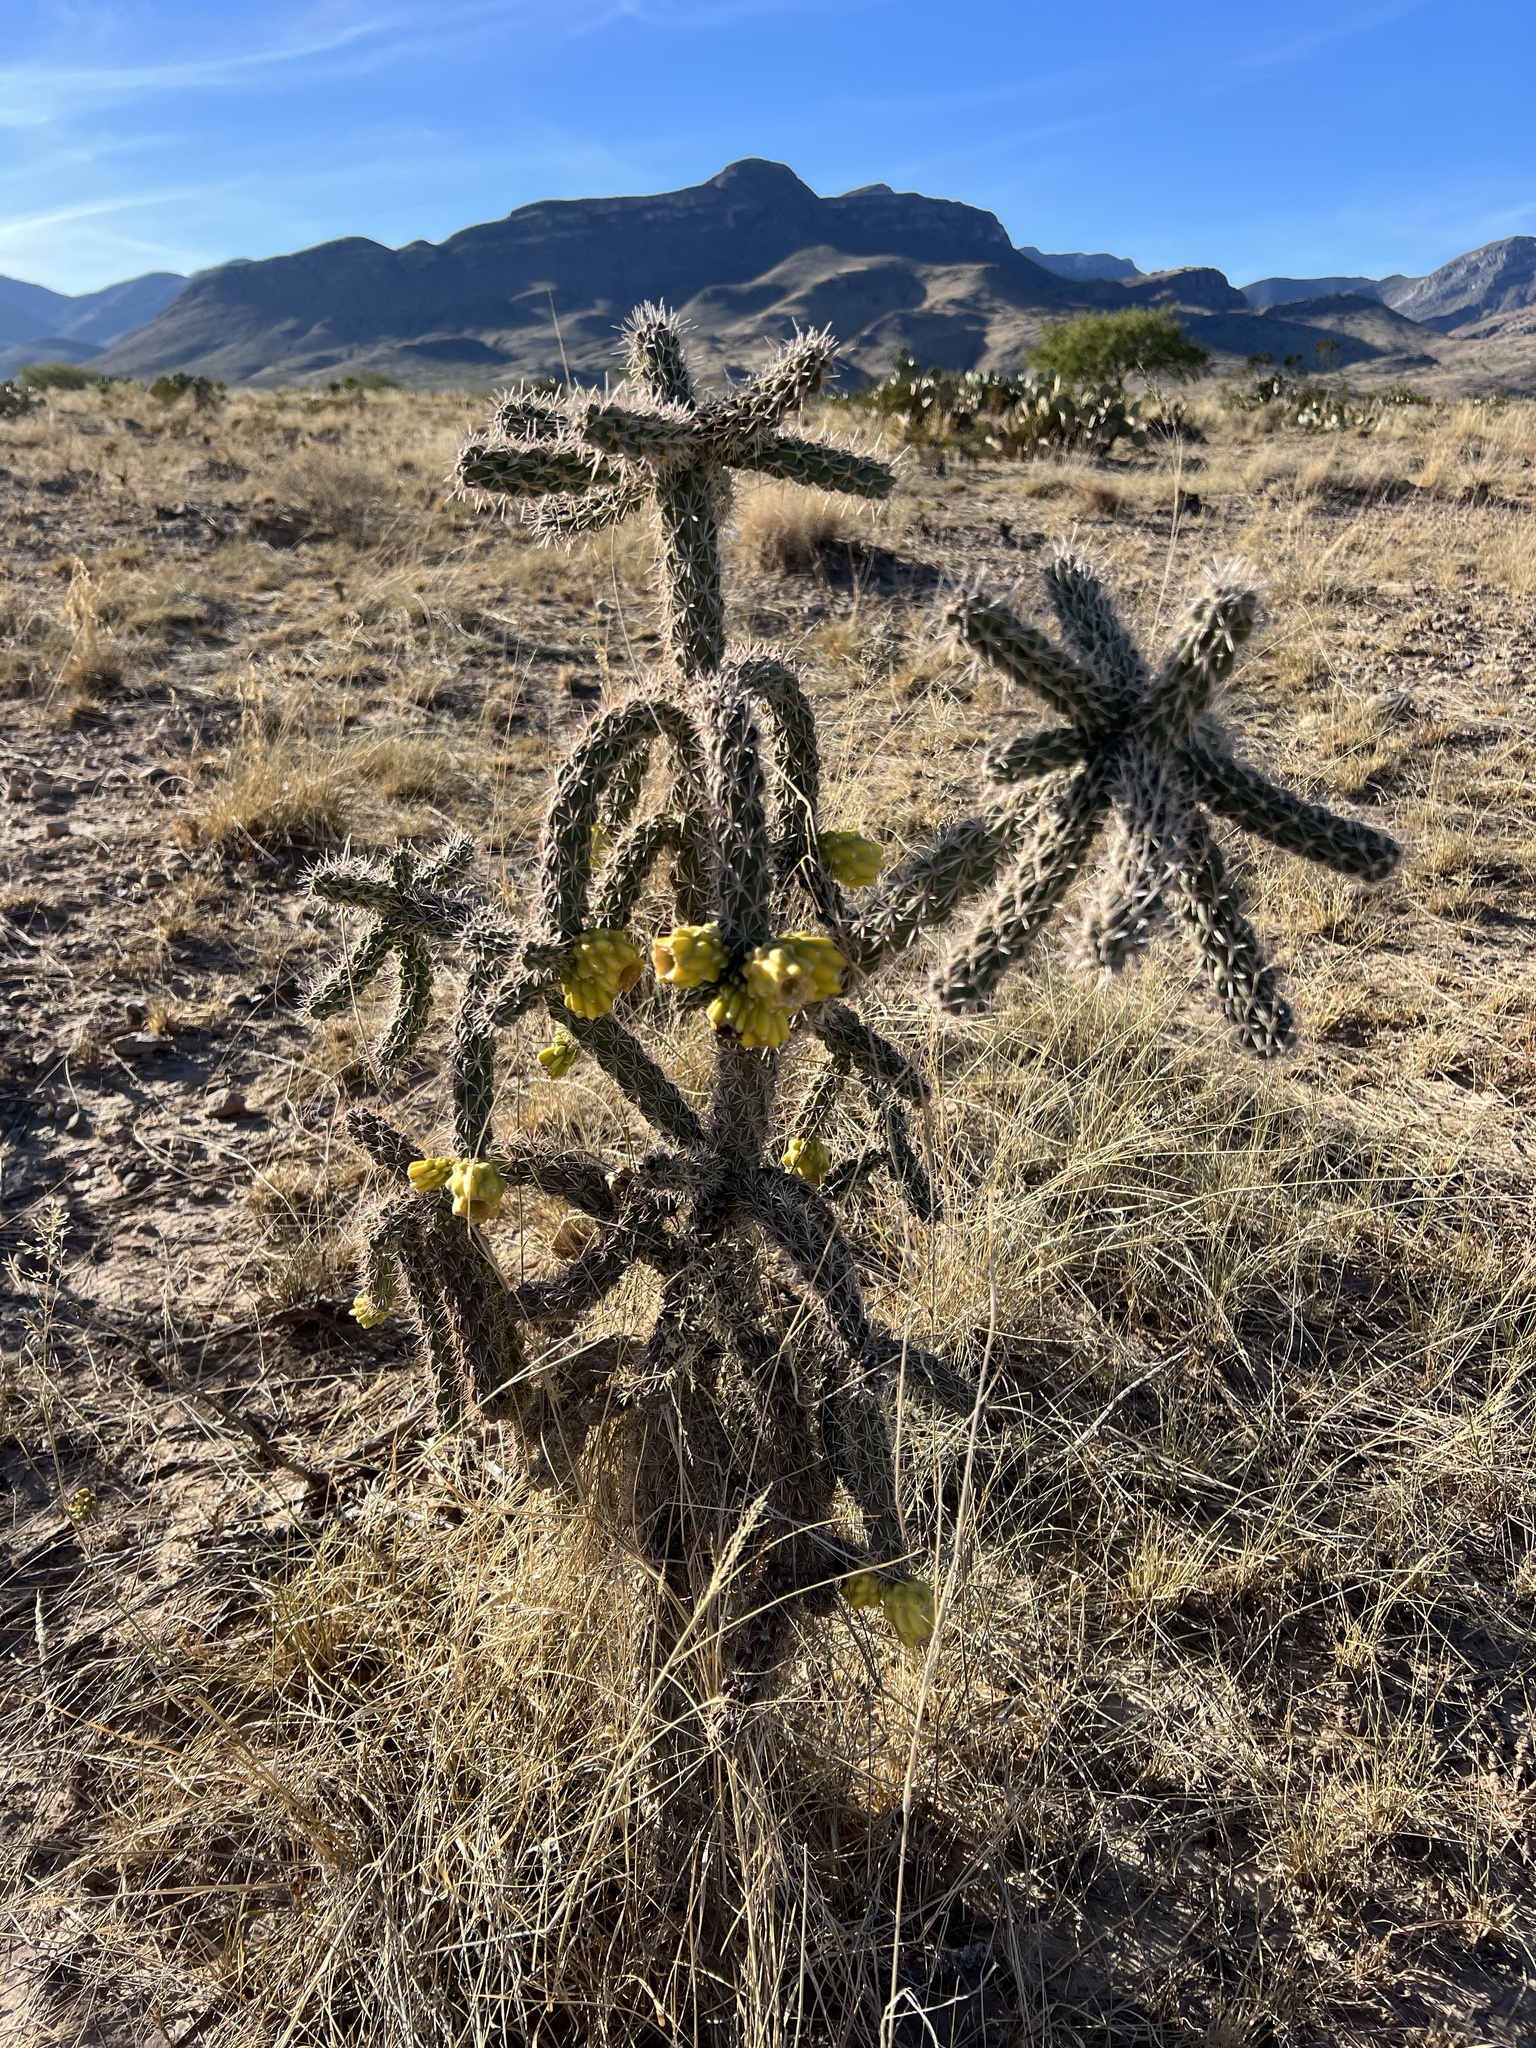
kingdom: Plantae
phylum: Tracheophyta
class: Magnoliopsida
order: Caryophyllales
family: Cactaceae
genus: Cylindropuntia
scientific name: Cylindropuntia imbricata
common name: Candelabrum cactus
